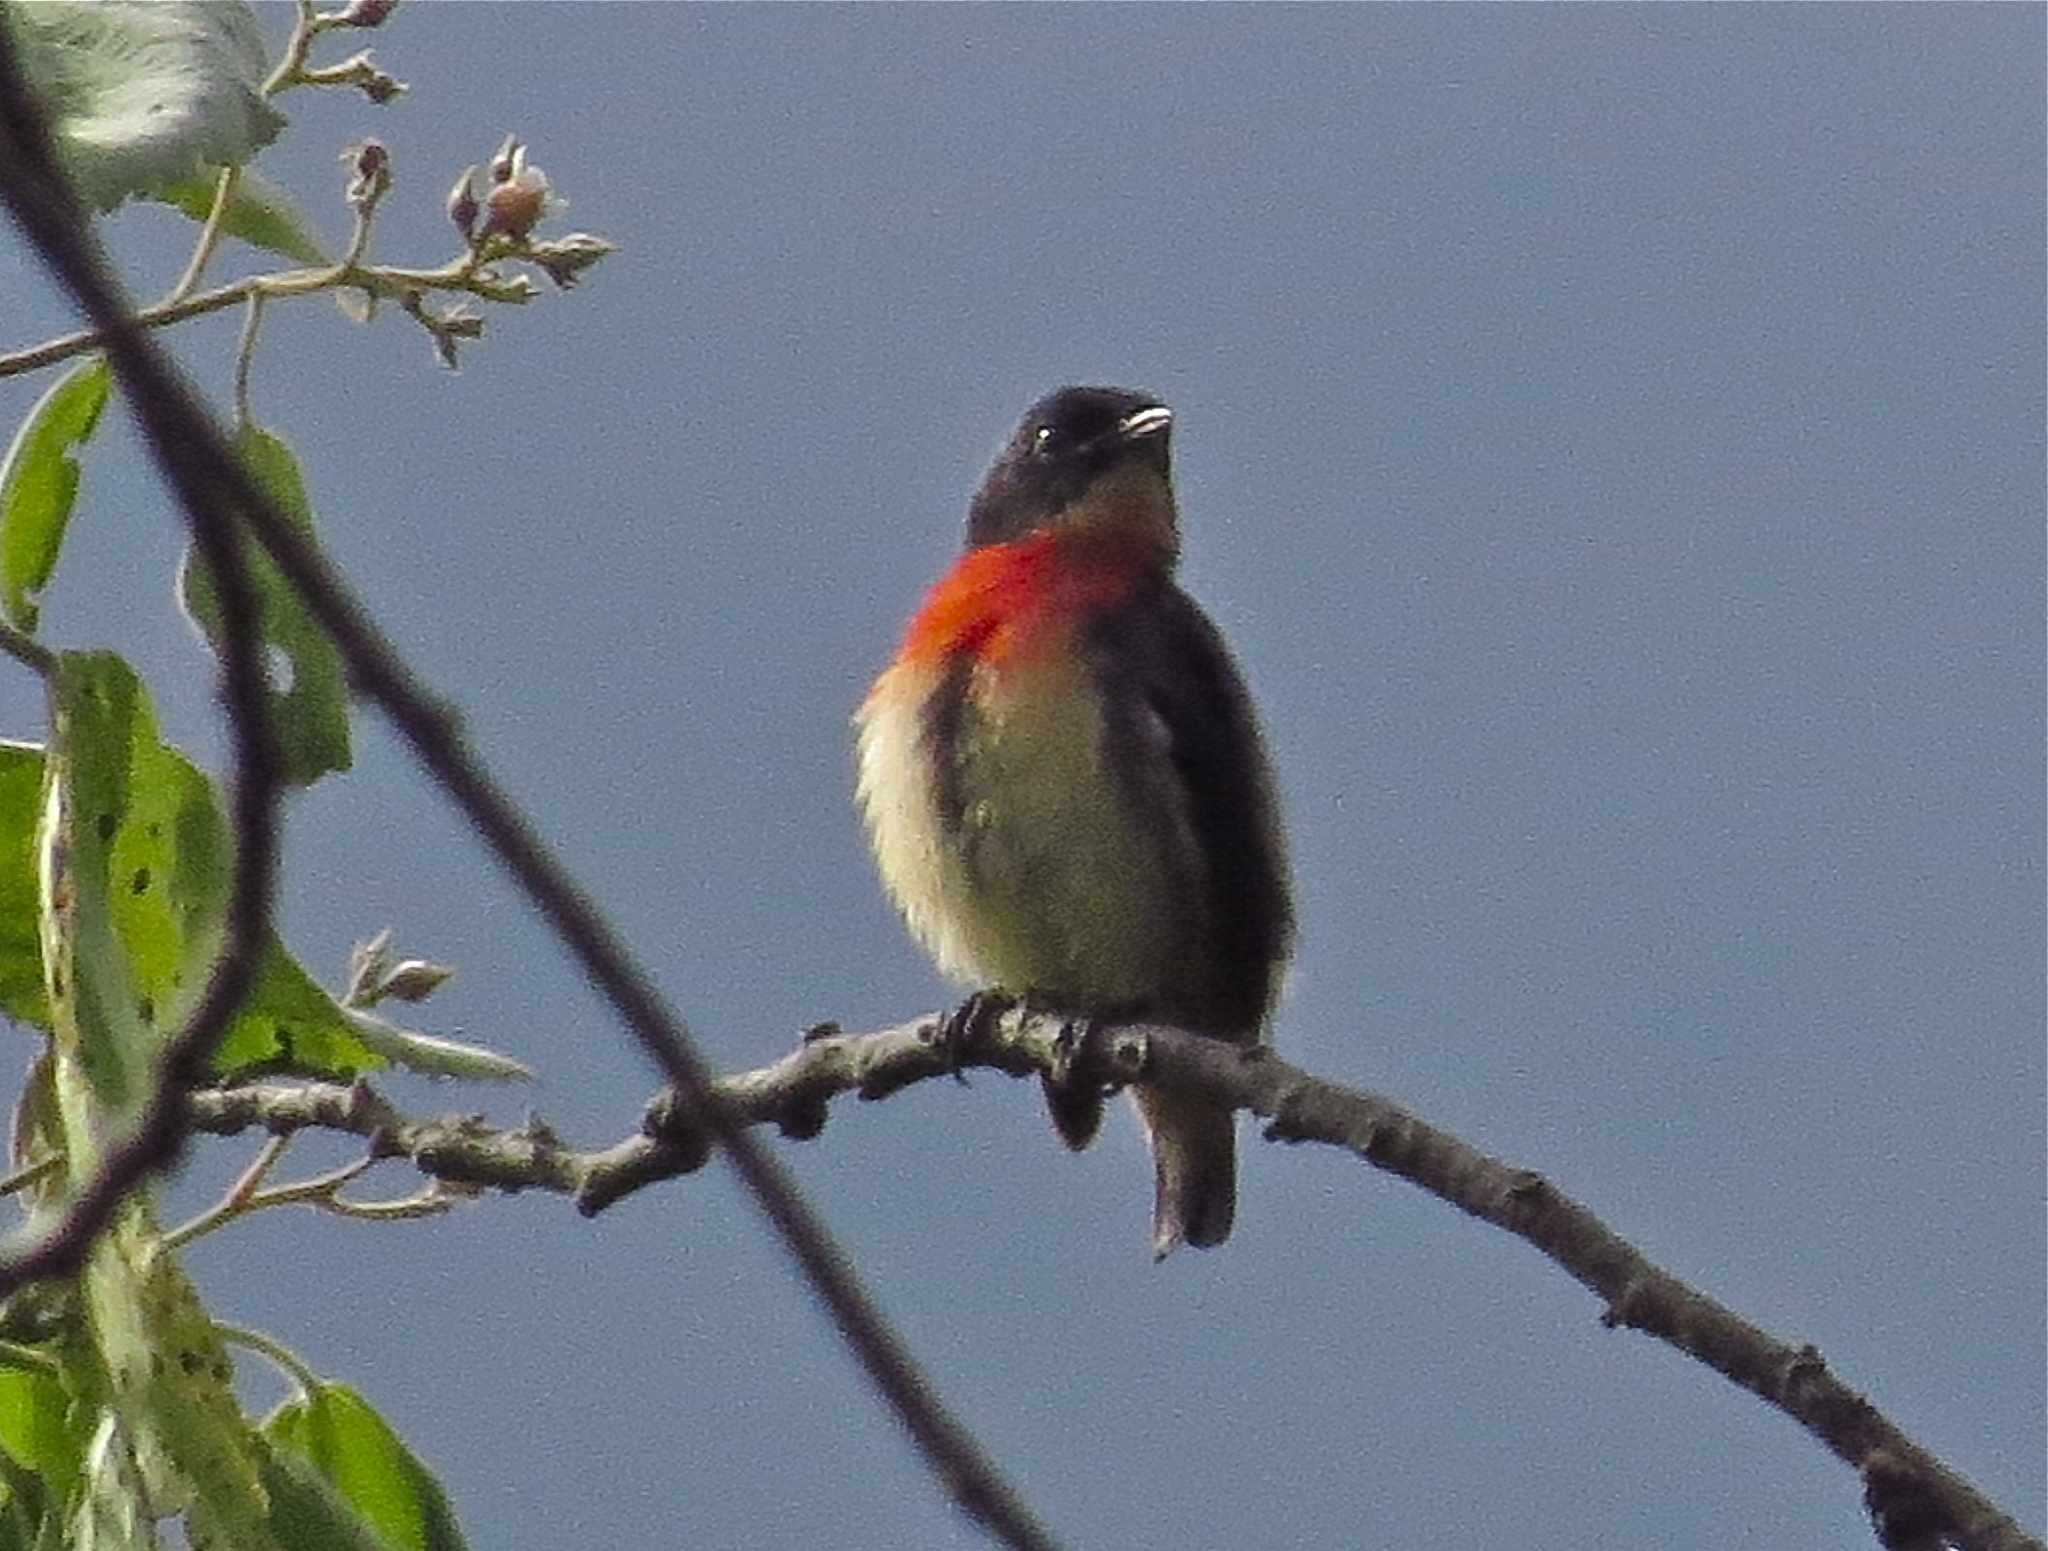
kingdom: Animalia
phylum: Chordata
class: Aves
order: Passeriformes
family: Dicaeidae
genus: Dicaeum
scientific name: Dicaeum sanguinolentum
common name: Blood-breasted flowerpecker
